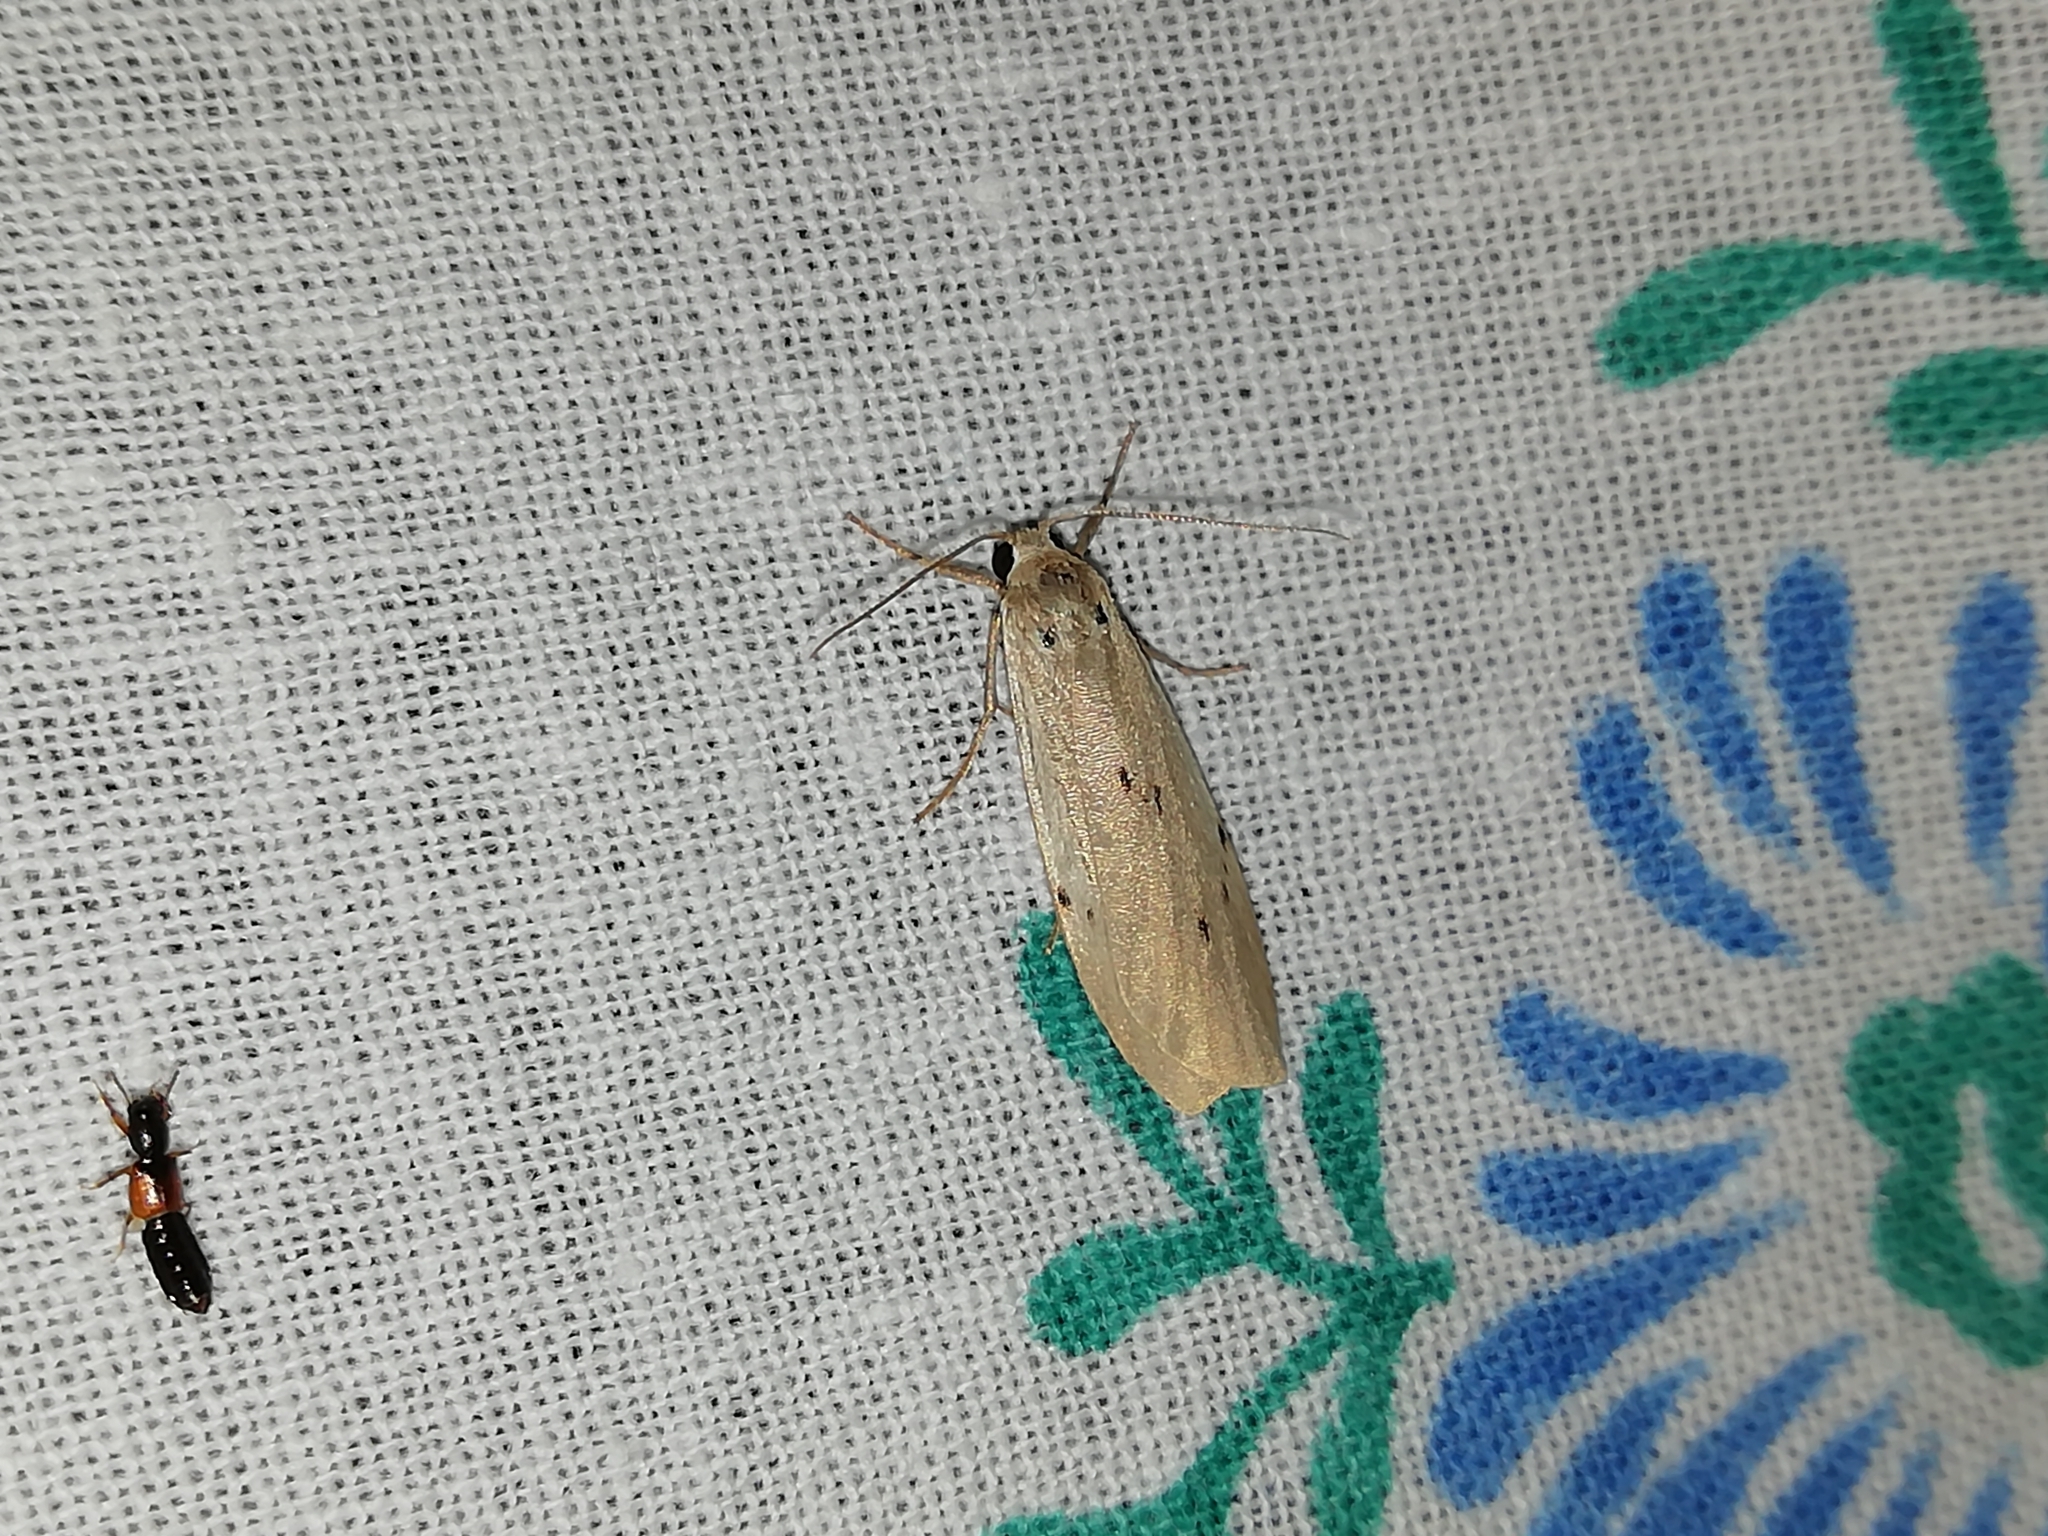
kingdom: Animalia
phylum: Arthropoda
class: Insecta
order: Lepidoptera
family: Erebidae
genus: Pelosia
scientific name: Pelosia muscerda
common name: Dotted footman
